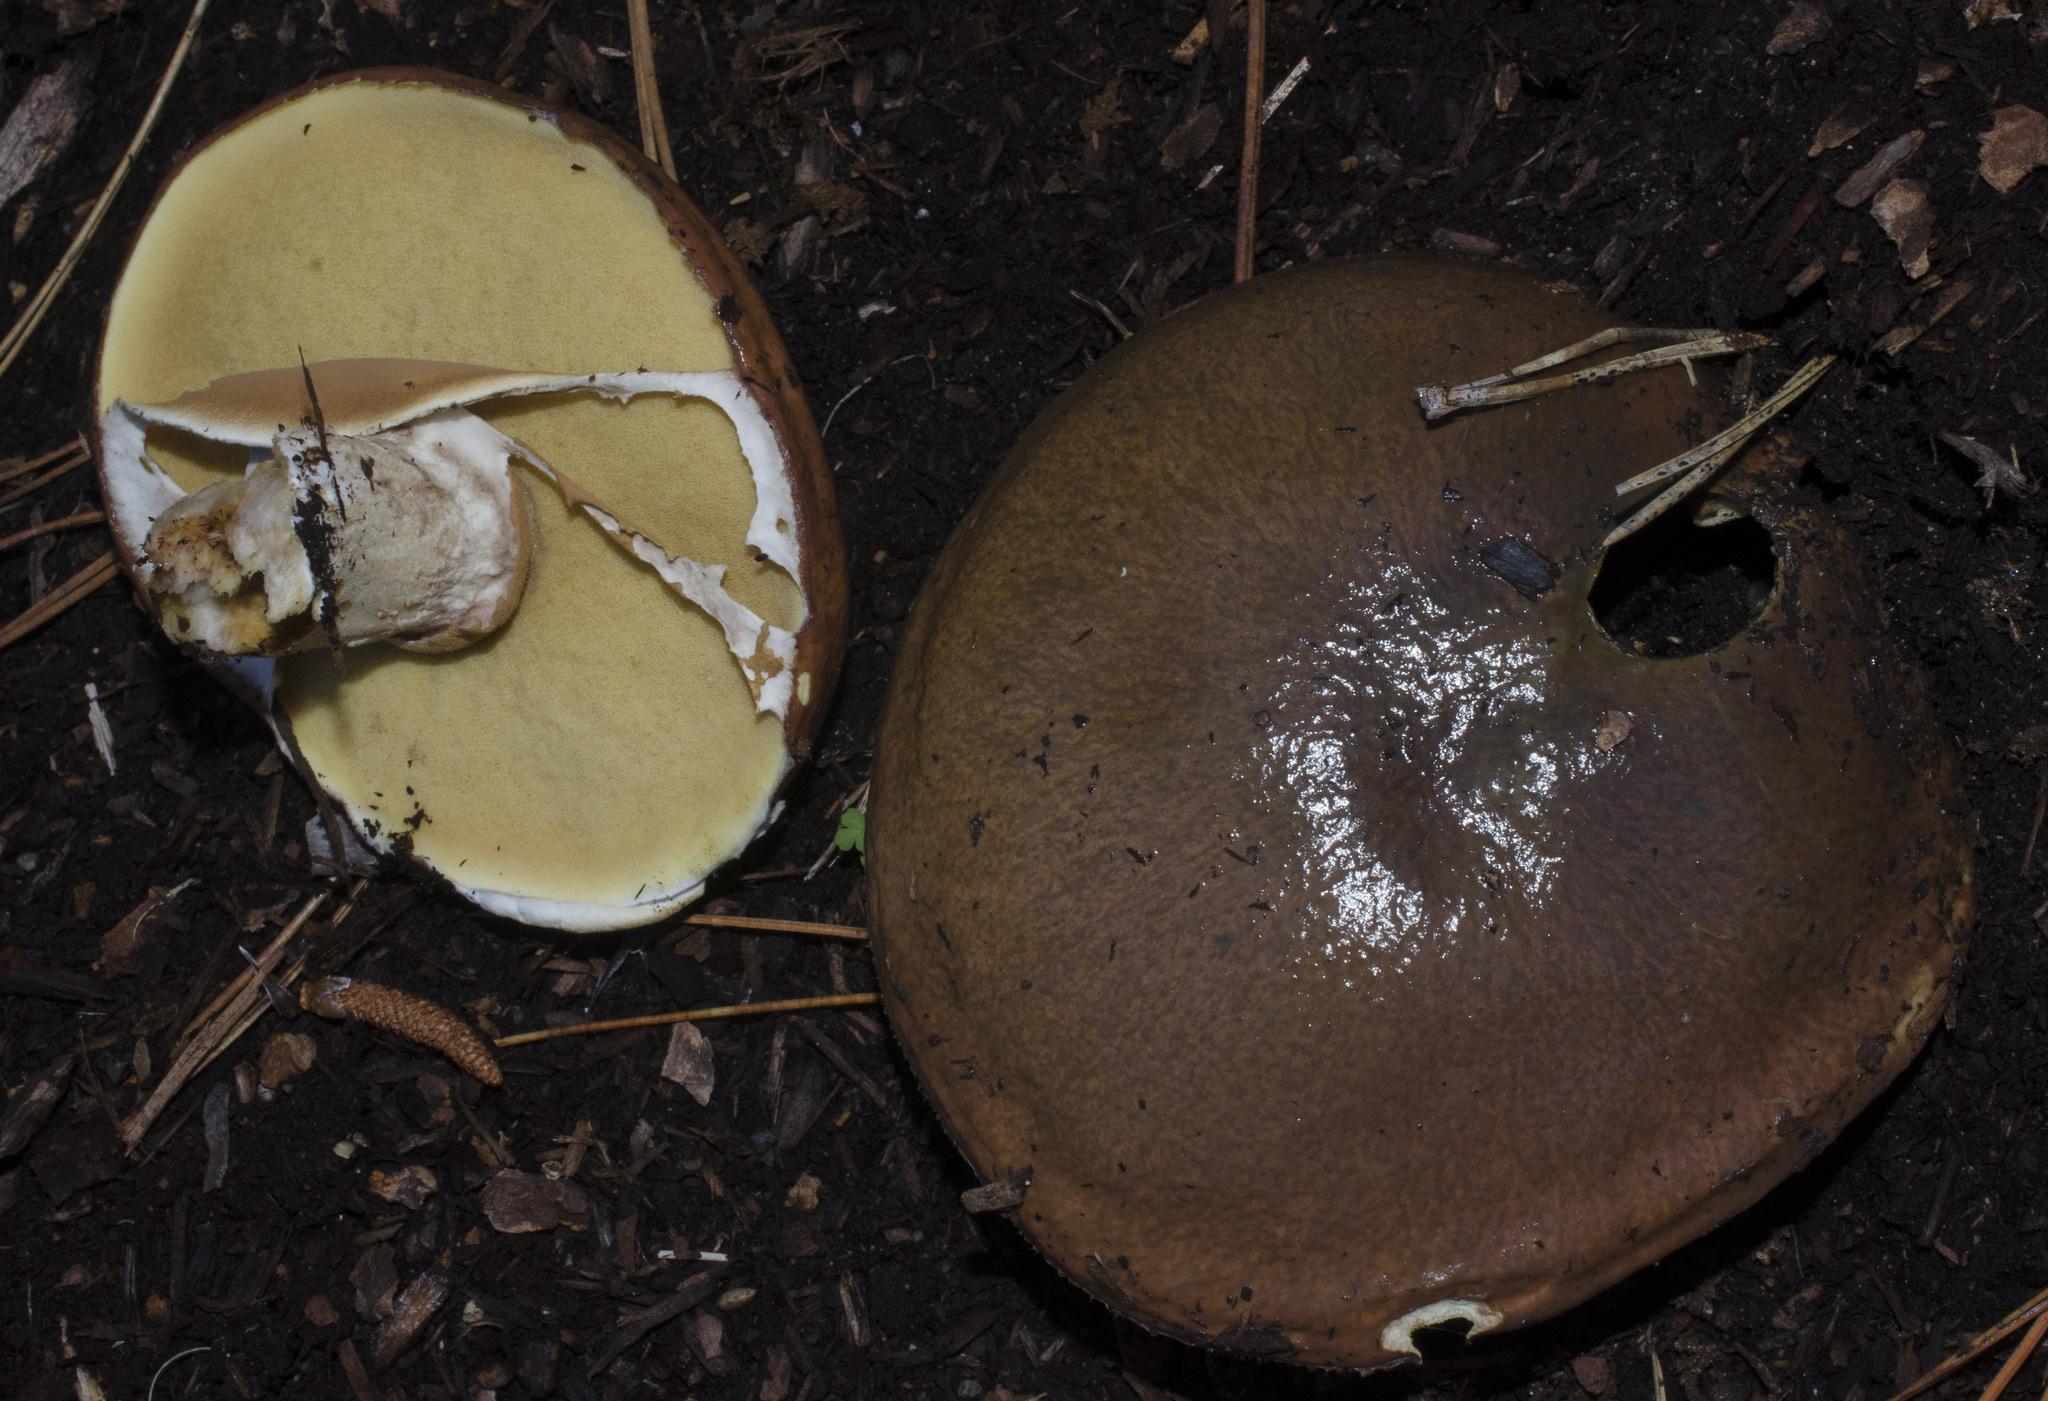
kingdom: Fungi
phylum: Basidiomycota
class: Agaricomycetes
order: Boletales
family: Suillaceae
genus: Suillus
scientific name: Suillus luteus
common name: Slippery jack
